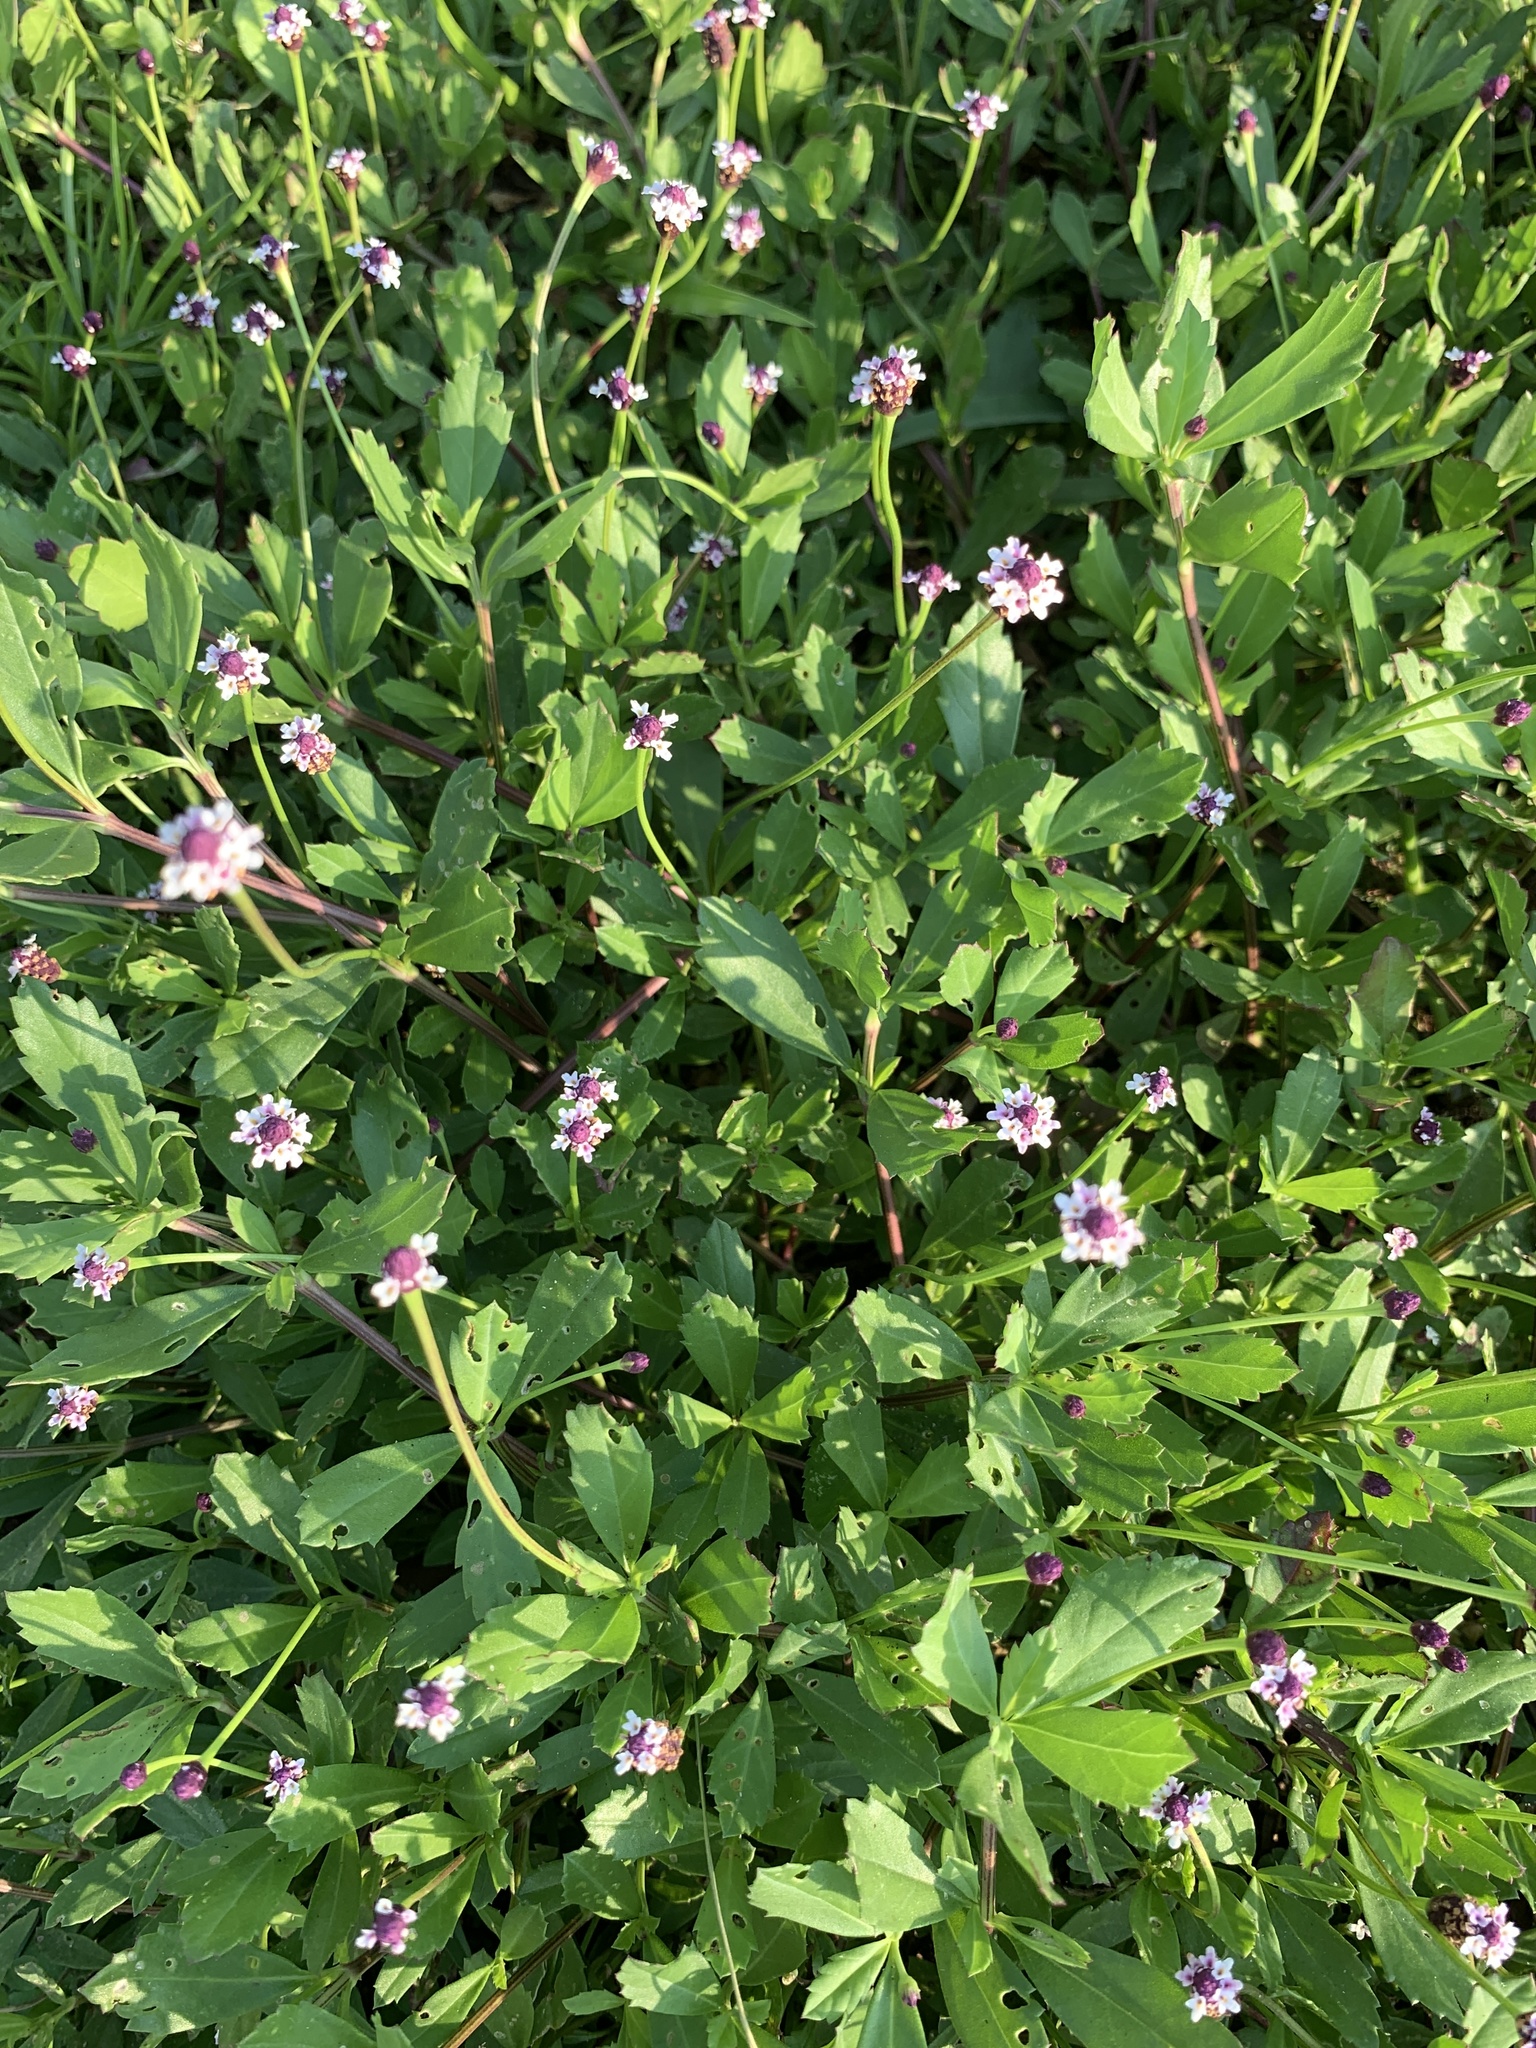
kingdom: Plantae
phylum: Tracheophyta
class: Magnoliopsida
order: Lamiales
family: Verbenaceae
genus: Phyla
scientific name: Phyla nodiflora
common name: Frogfruit
